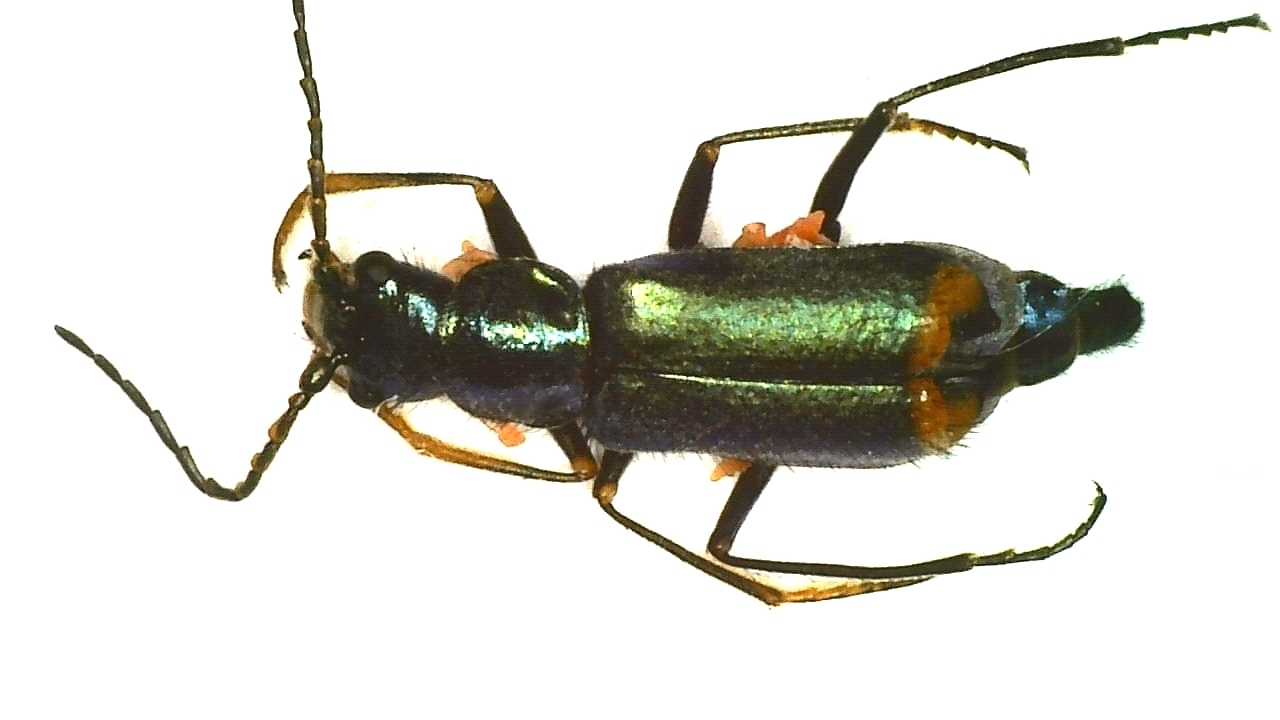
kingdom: Animalia
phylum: Arthropoda
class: Insecta
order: Coleoptera
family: Malachiidae
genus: Clanoptilus
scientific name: Clanoptilus geniculatus
